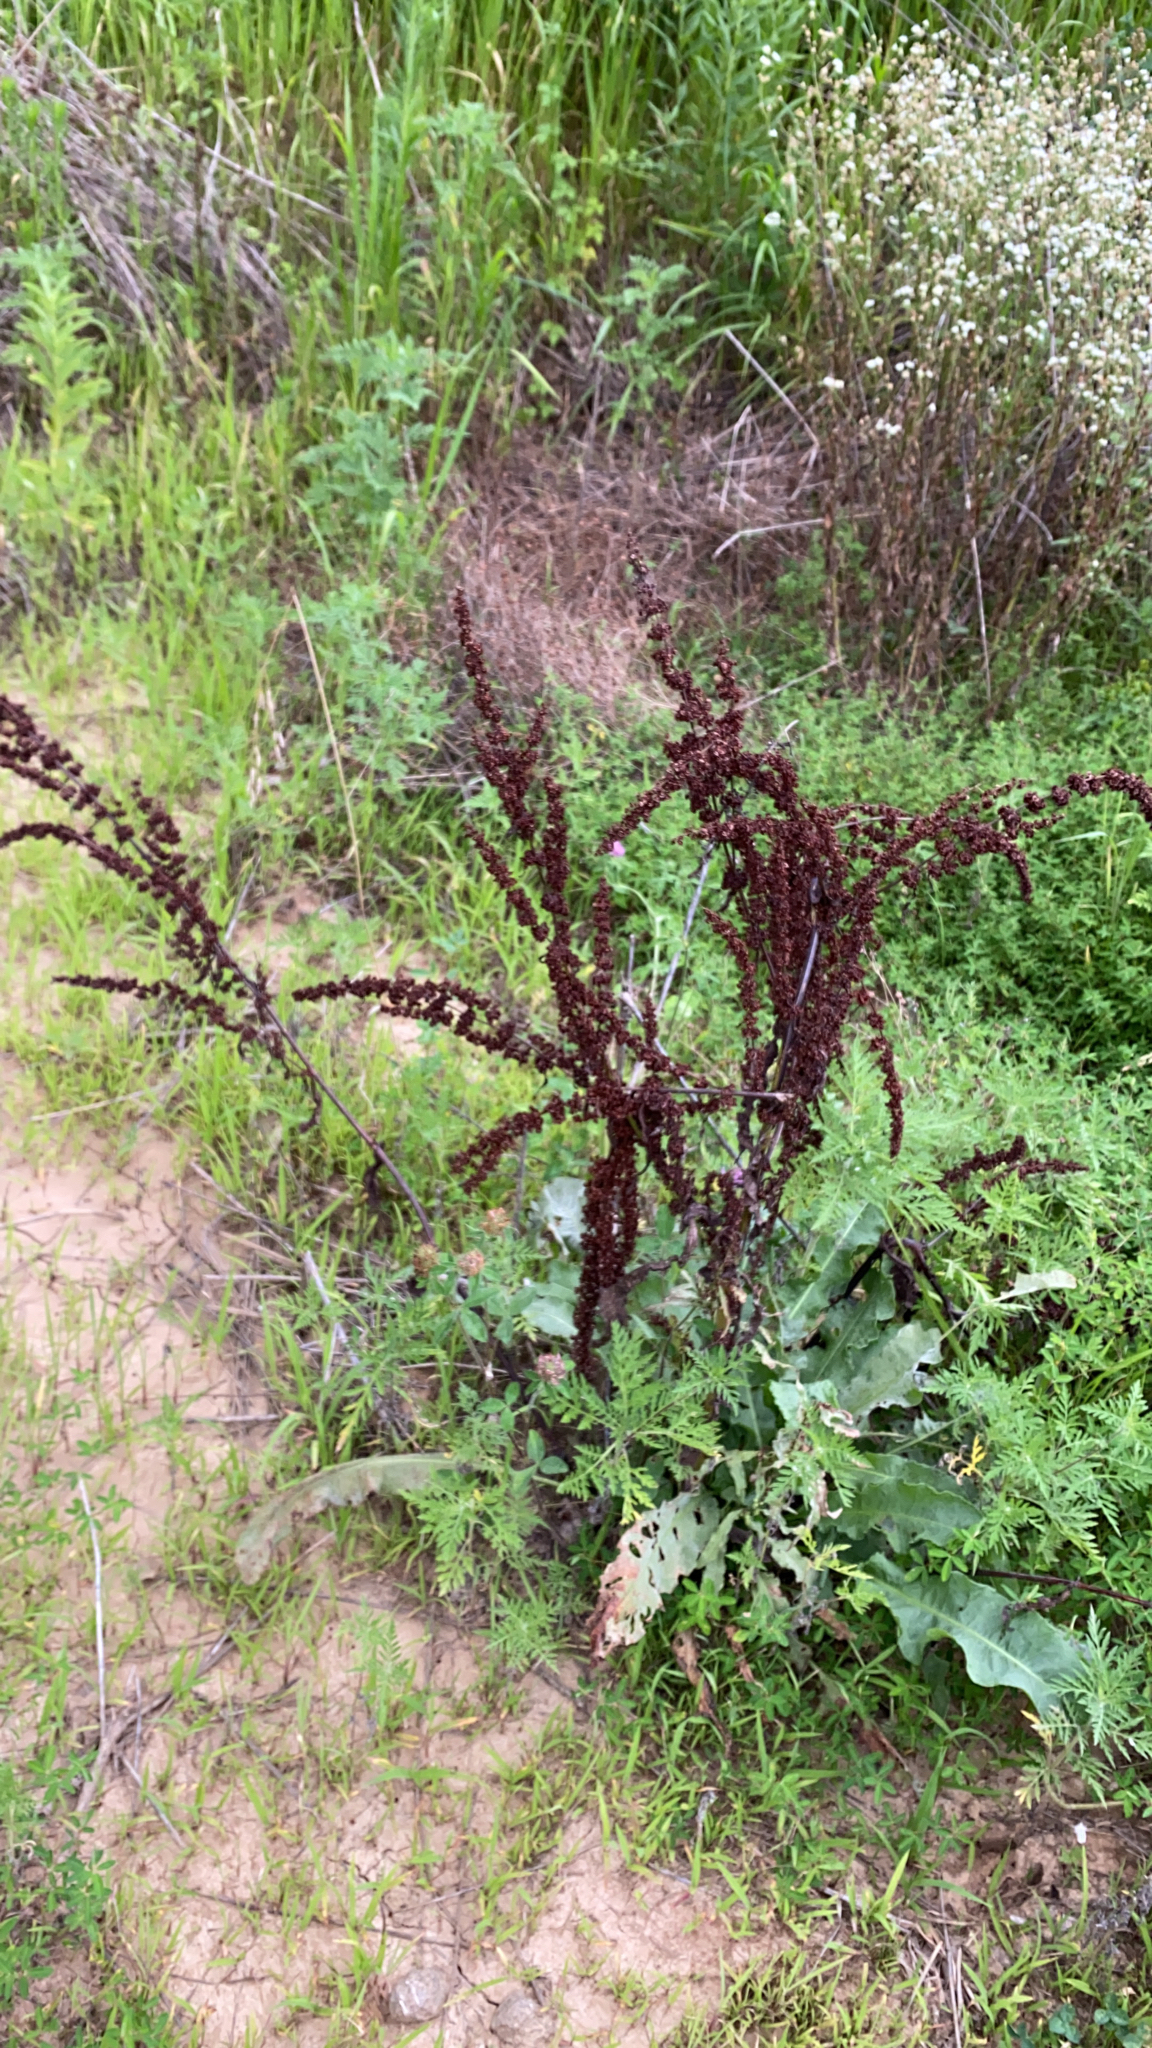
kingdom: Plantae
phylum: Tracheophyta
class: Magnoliopsida
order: Caryophyllales
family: Polygonaceae
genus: Rumex
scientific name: Rumex crispus
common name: Curled dock
